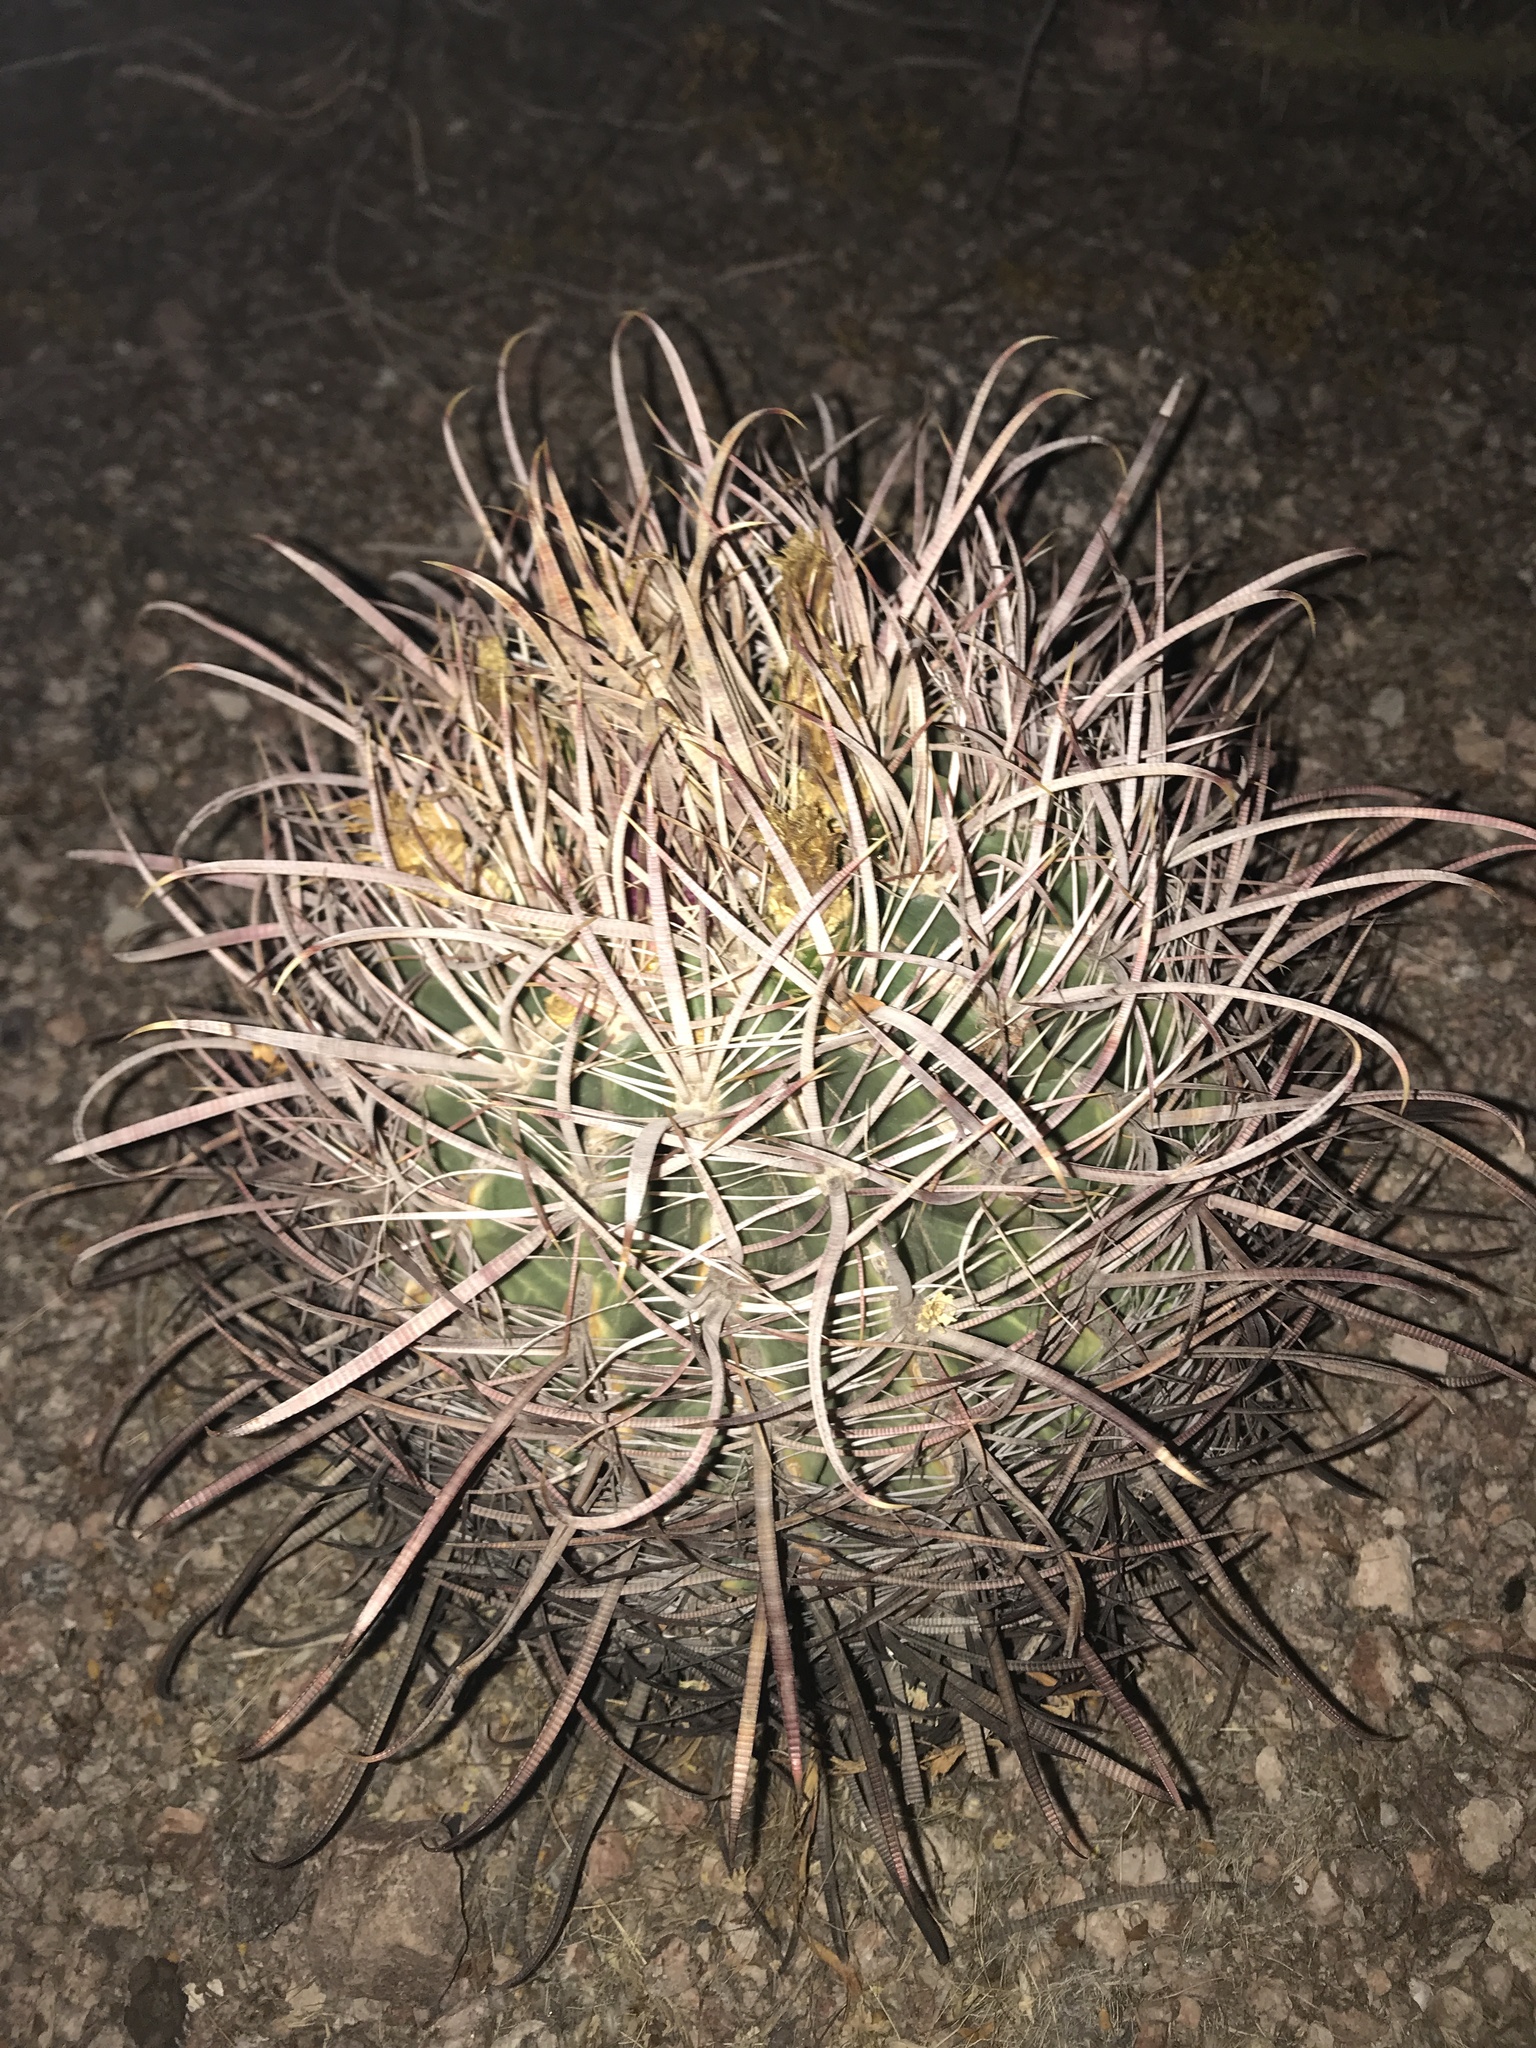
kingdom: Plantae
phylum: Tracheophyta
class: Magnoliopsida
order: Caryophyllales
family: Cactaceae
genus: Ferocactus
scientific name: Ferocactus cylindraceus
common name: California barrel cactus
